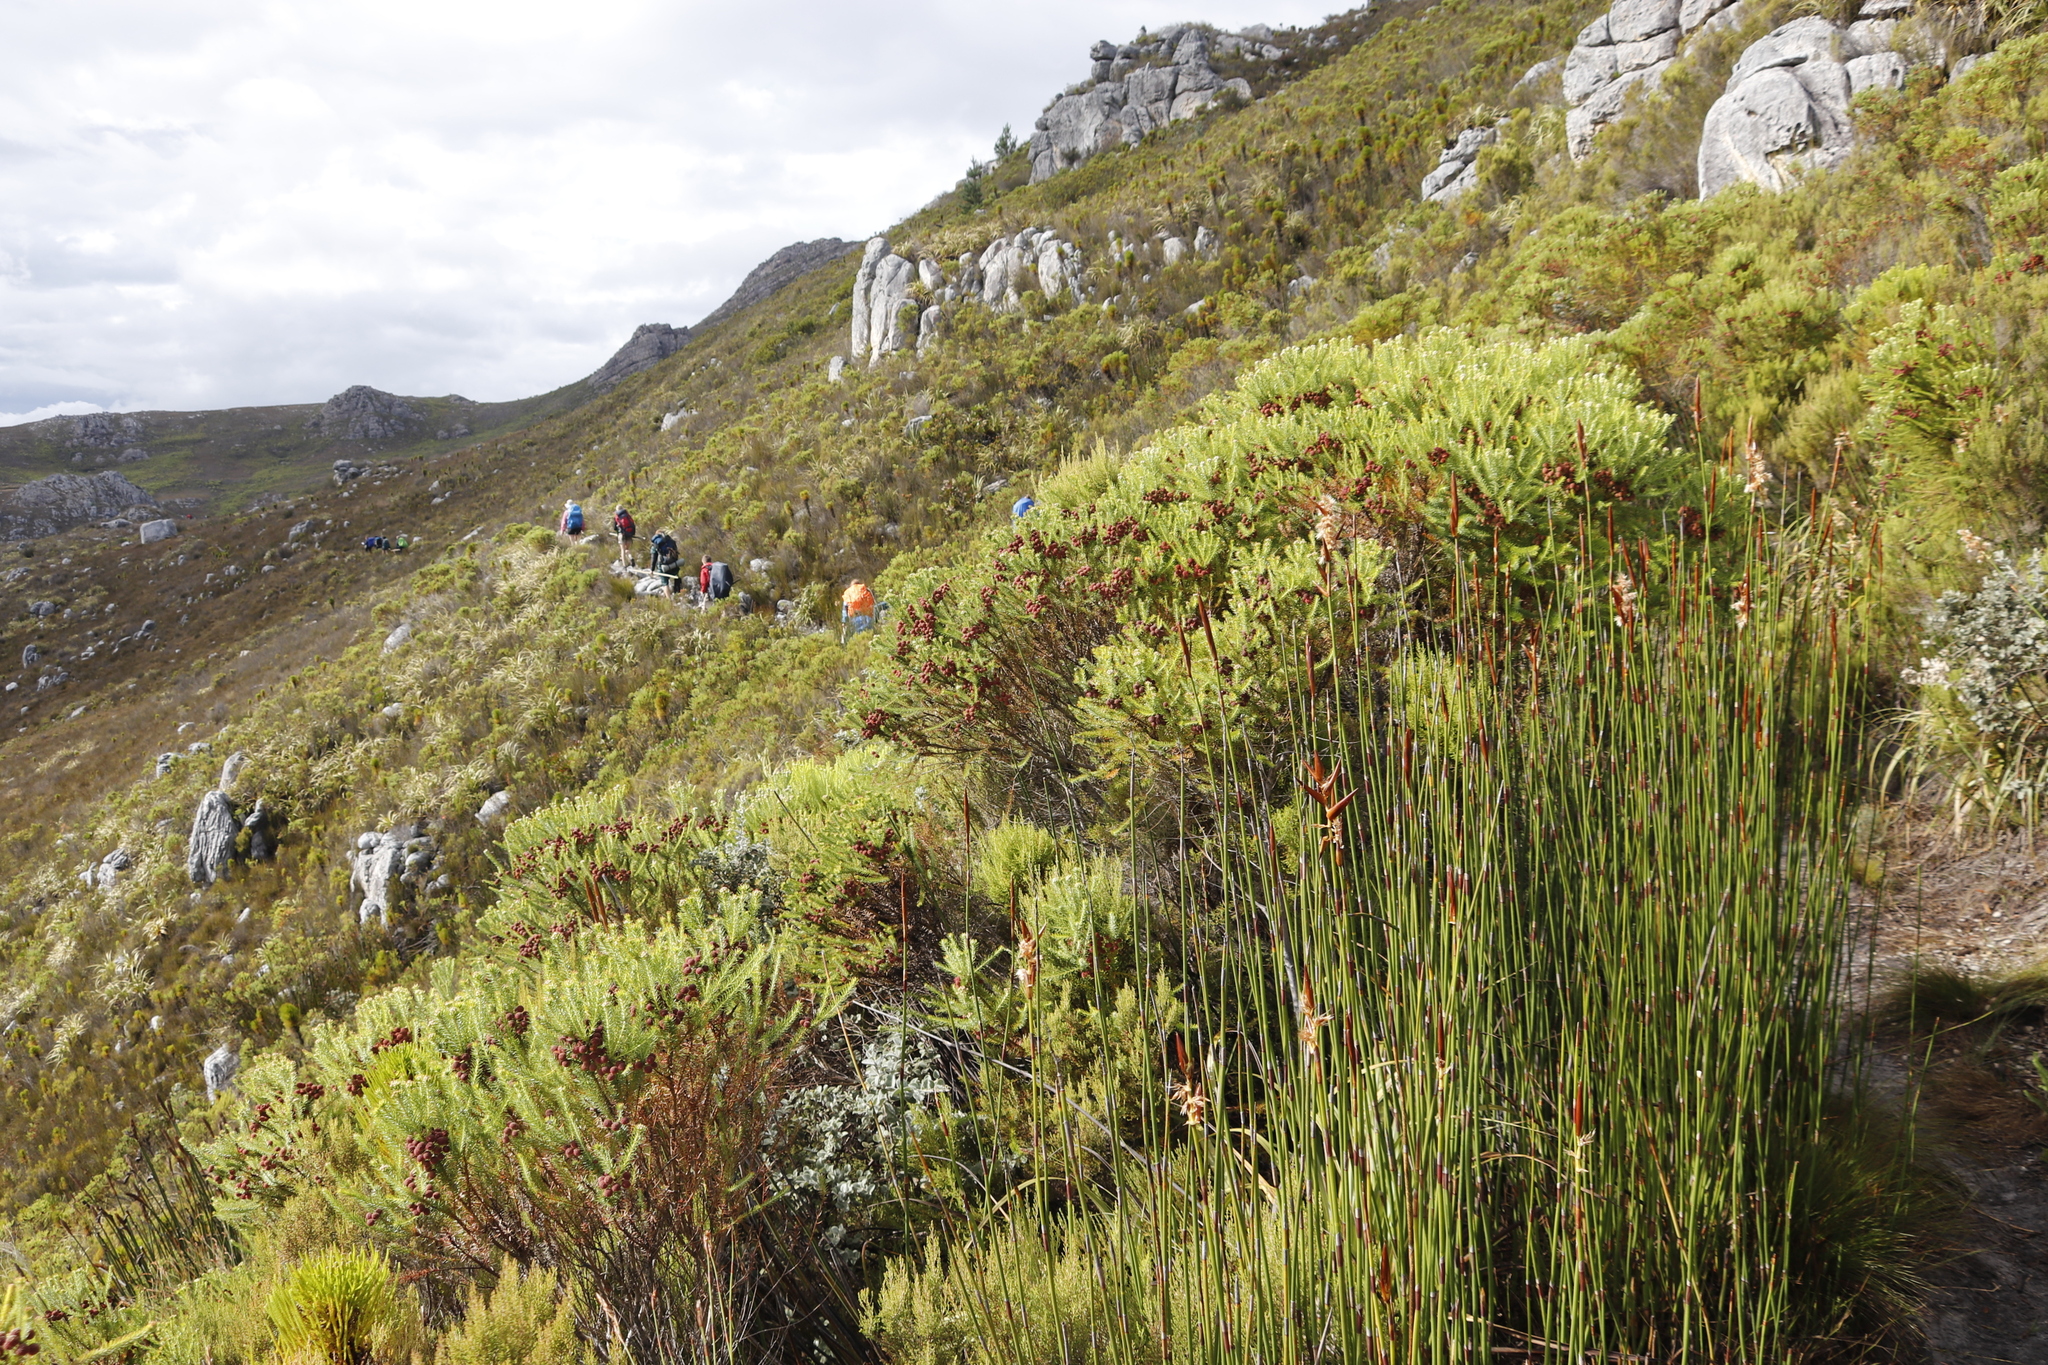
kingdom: Plantae
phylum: Tracheophyta
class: Liliopsida
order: Poales
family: Restionaceae
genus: Elegia
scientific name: Elegia mucronata
